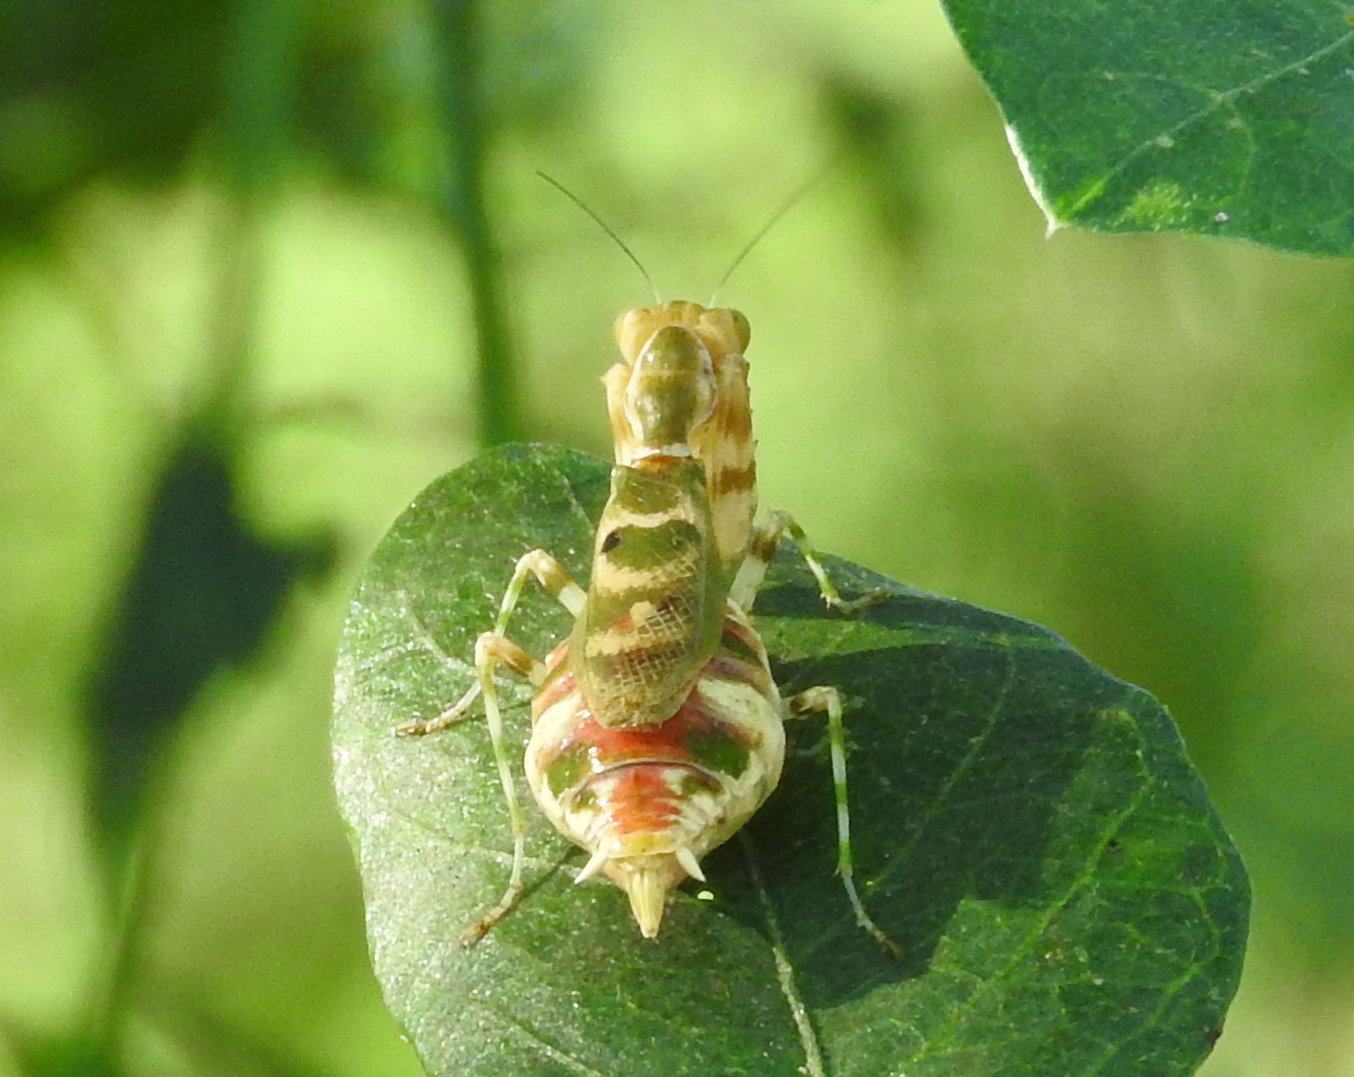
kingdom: Animalia
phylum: Arthropoda
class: Insecta
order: Mantodea
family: Acanthopidae
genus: Acontista
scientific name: Acontista mexicana
